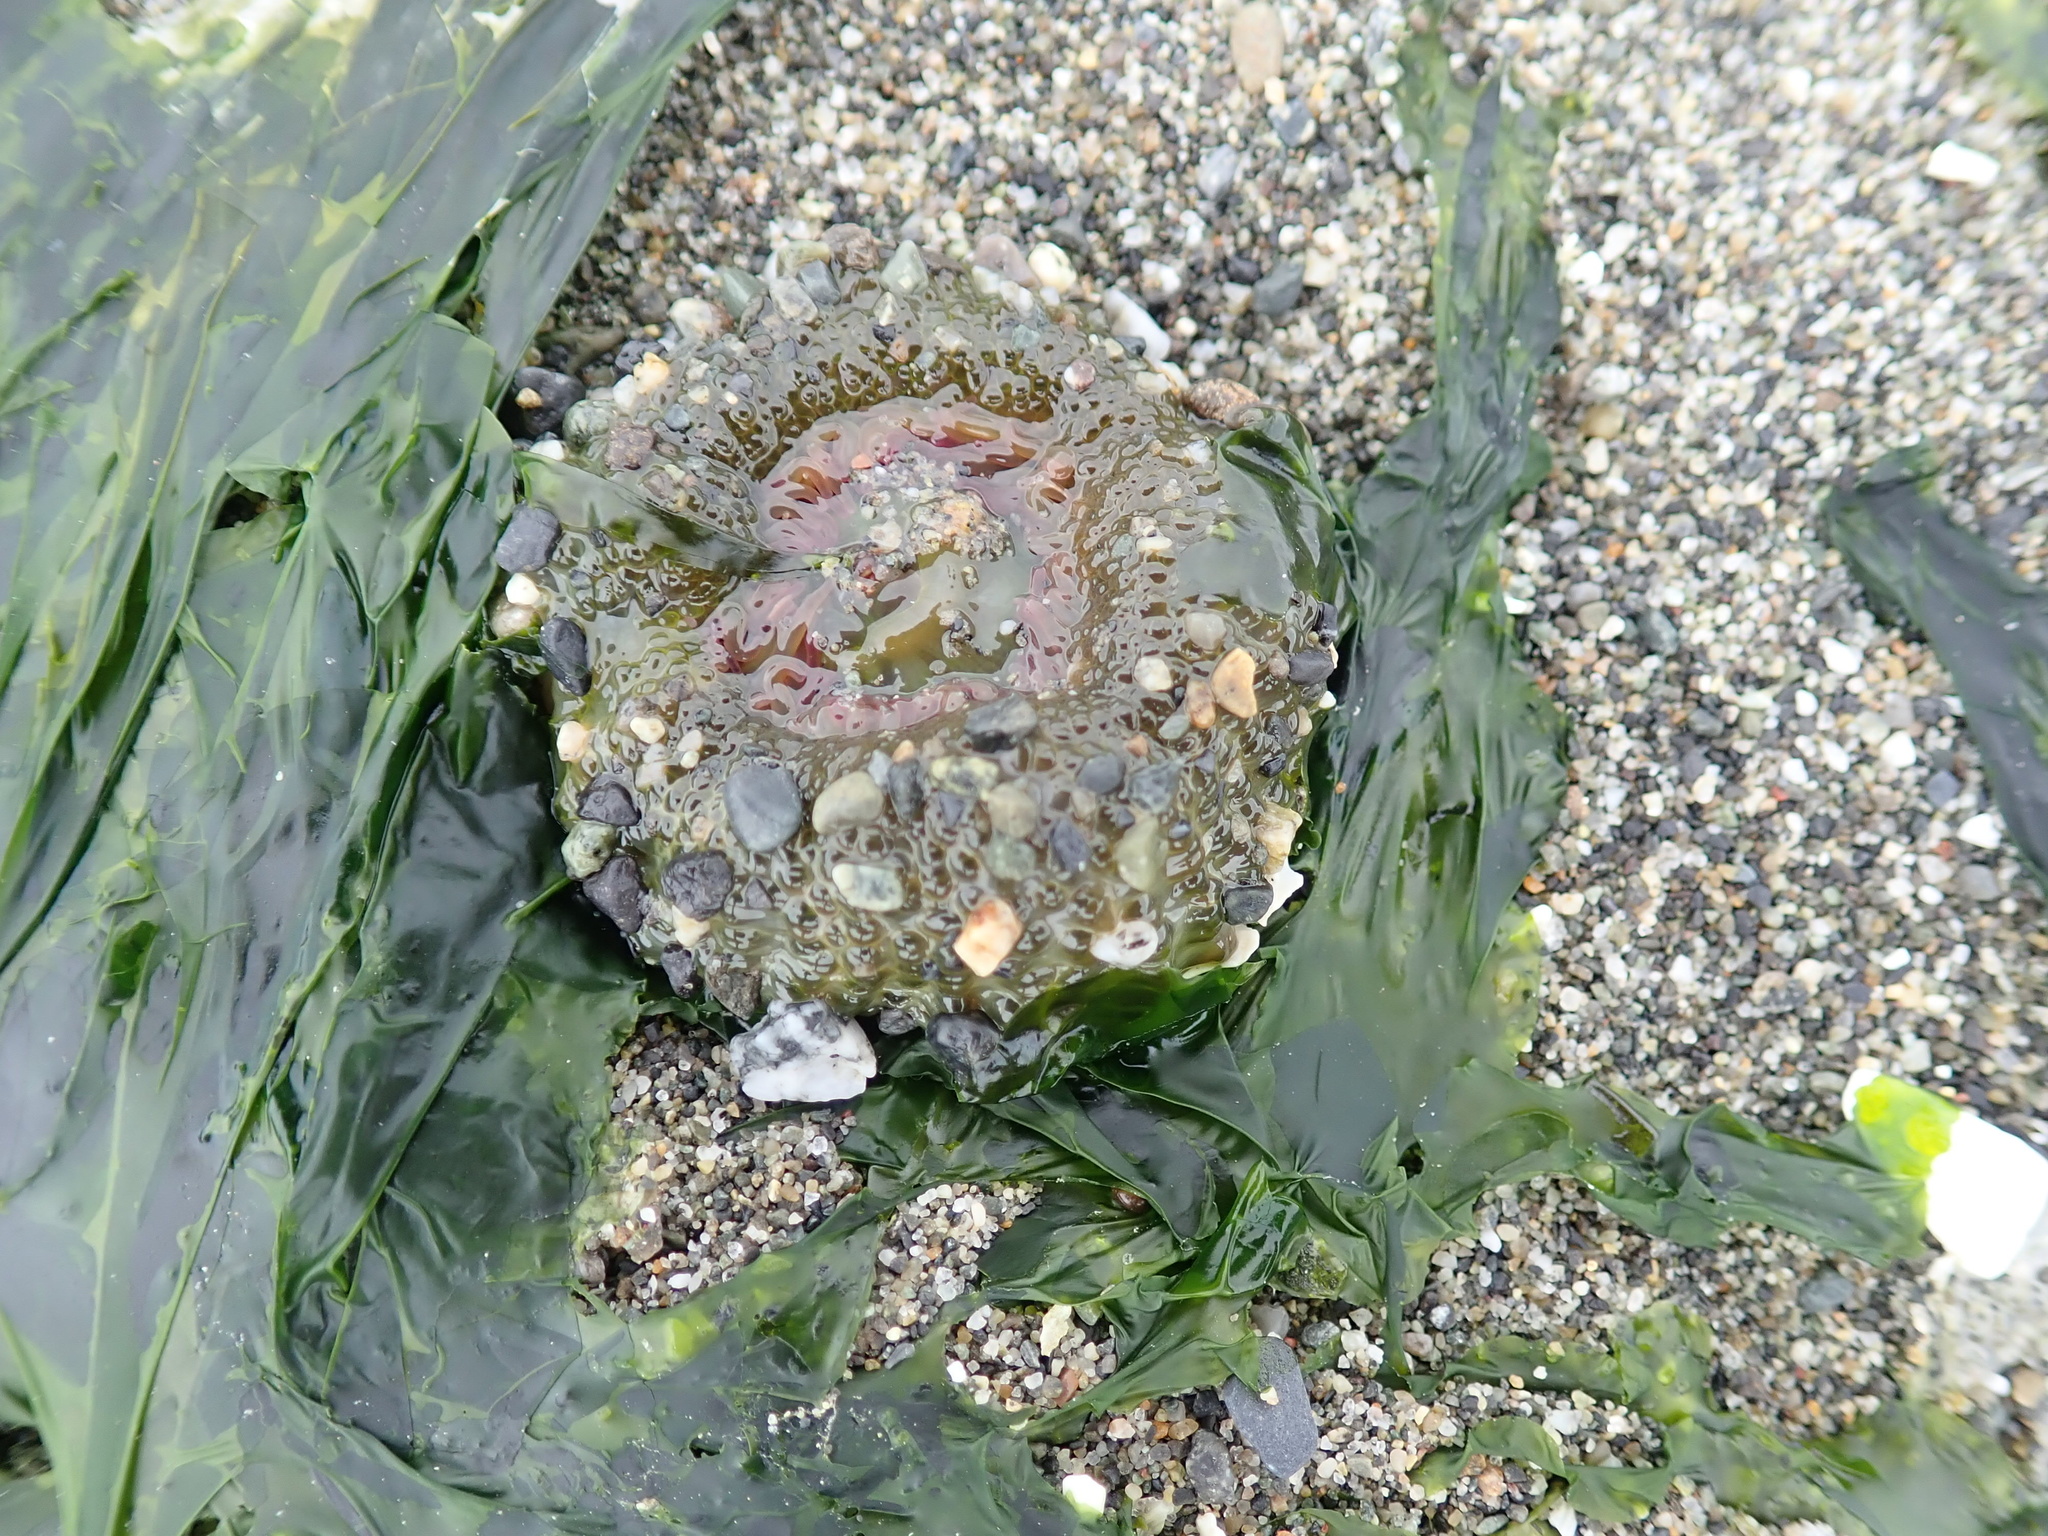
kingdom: Animalia
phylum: Cnidaria
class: Anthozoa
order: Actiniaria
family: Actiniidae
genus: Anthopleura
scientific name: Anthopleura elegantissima
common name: Clonal anemone
